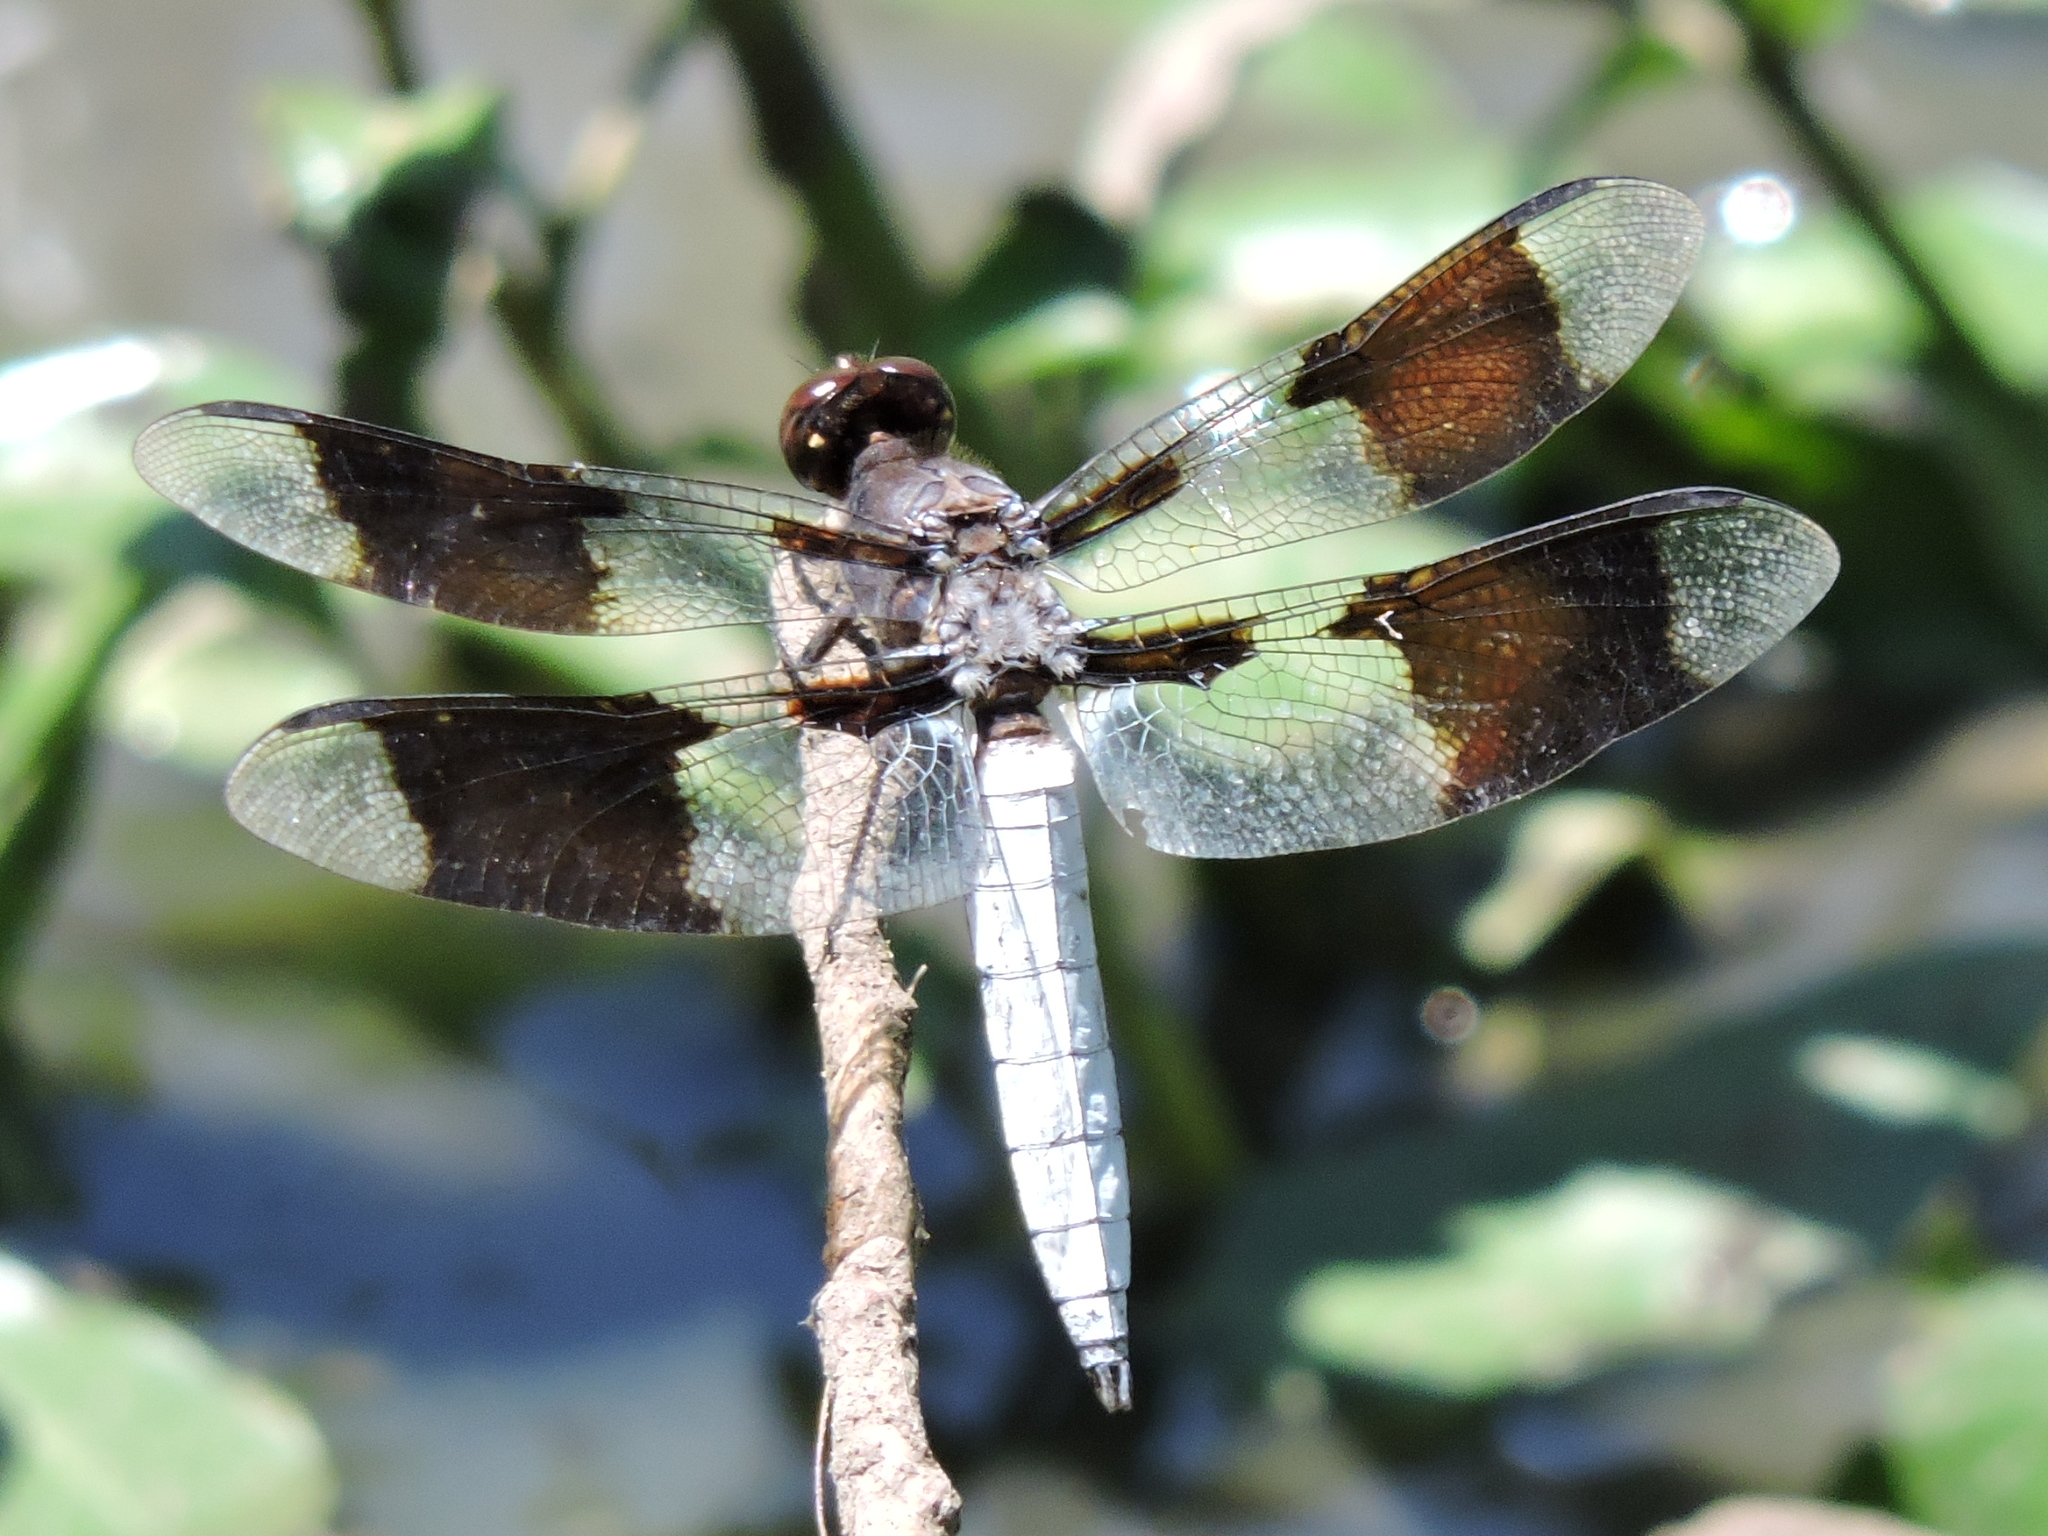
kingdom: Animalia
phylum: Arthropoda
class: Insecta
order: Odonata
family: Libellulidae
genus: Plathemis
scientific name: Plathemis lydia
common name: Common whitetail
